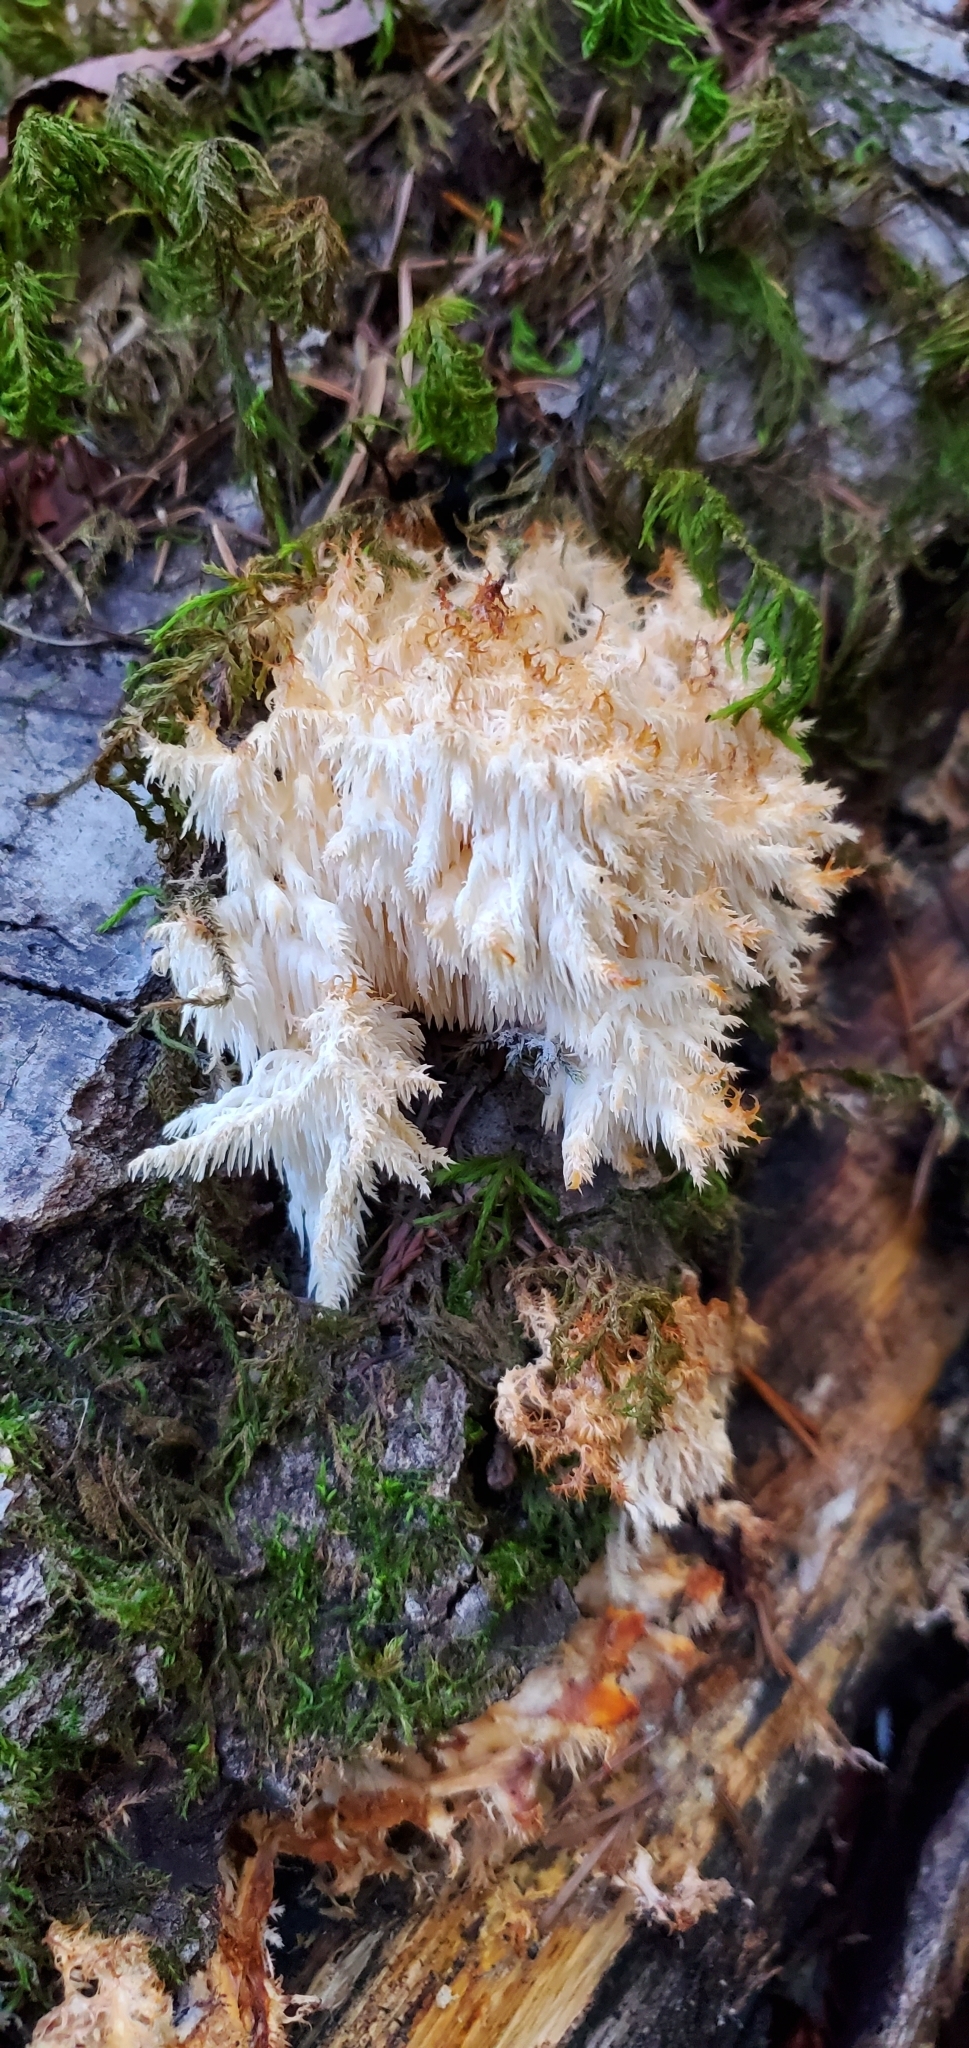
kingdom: Fungi
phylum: Basidiomycota
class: Agaricomycetes
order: Russulales
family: Hericiaceae
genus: Hericium
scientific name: Hericium coralloides
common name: Coral tooth
